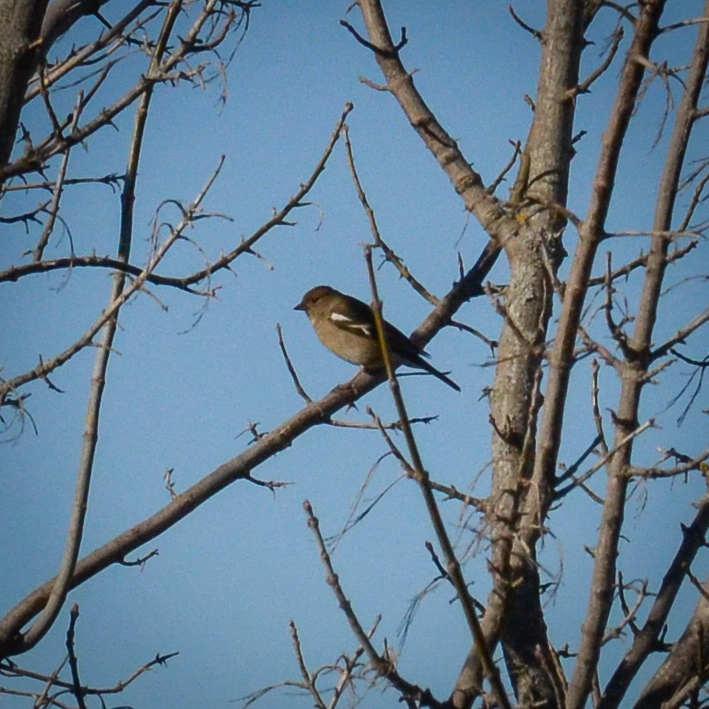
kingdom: Animalia
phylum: Chordata
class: Aves
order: Passeriformes
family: Fringillidae
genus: Fringilla
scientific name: Fringilla coelebs
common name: Common chaffinch
